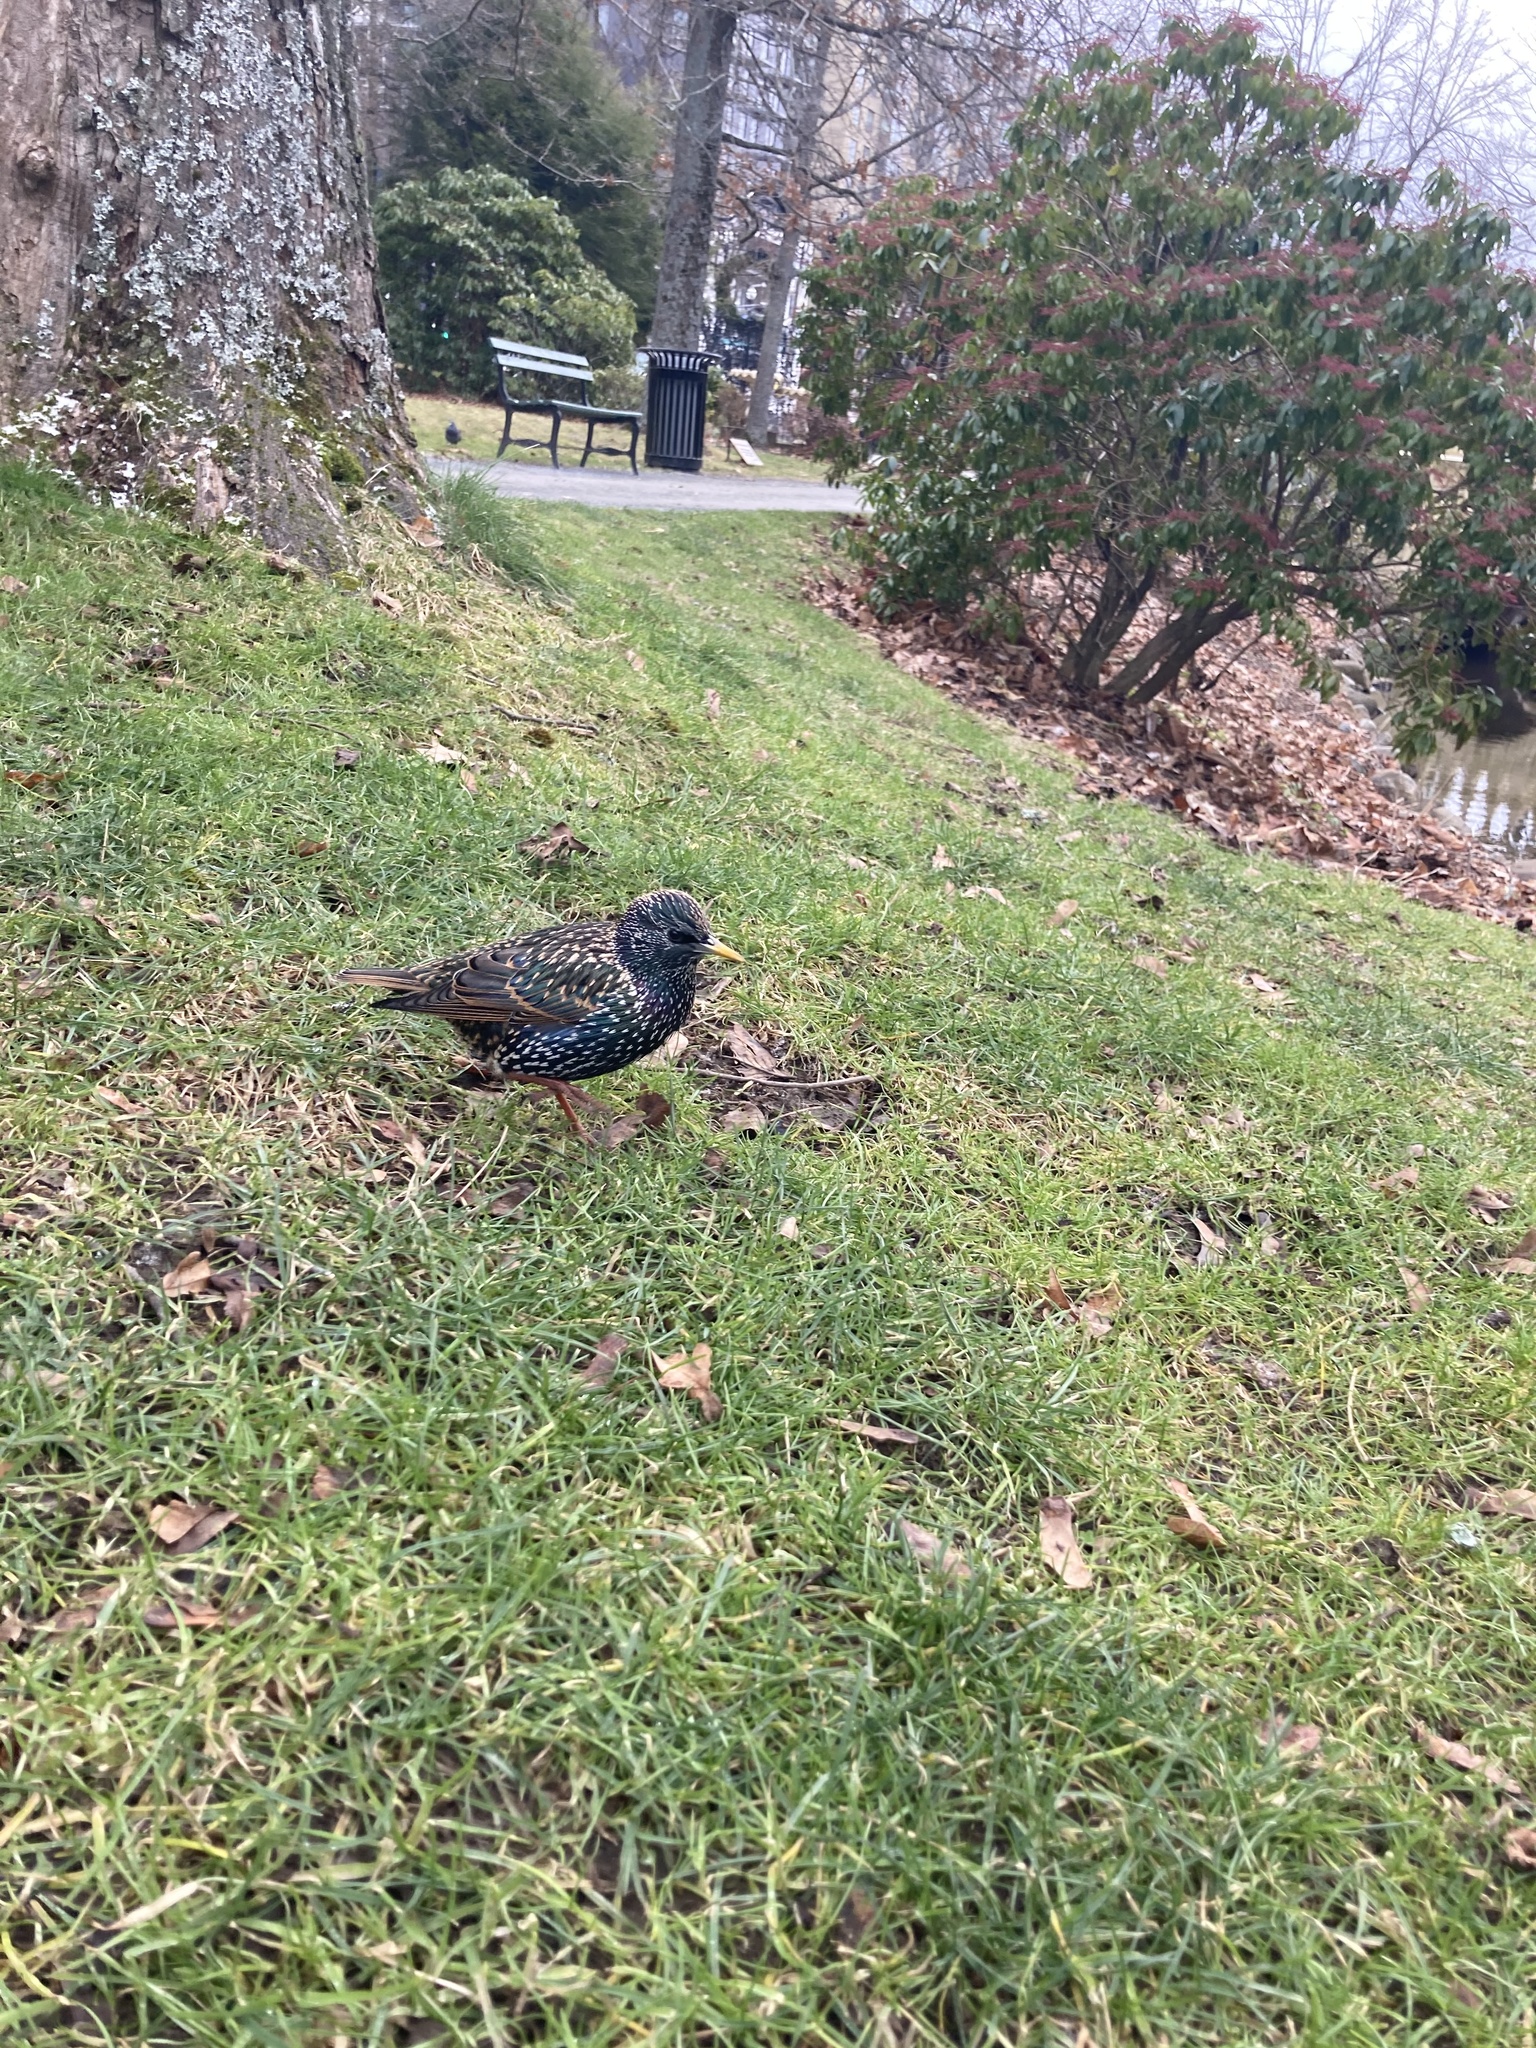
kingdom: Animalia
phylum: Chordata
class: Aves
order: Passeriformes
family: Sturnidae
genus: Sturnus
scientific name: Sturnus vulgaris
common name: Common starling
